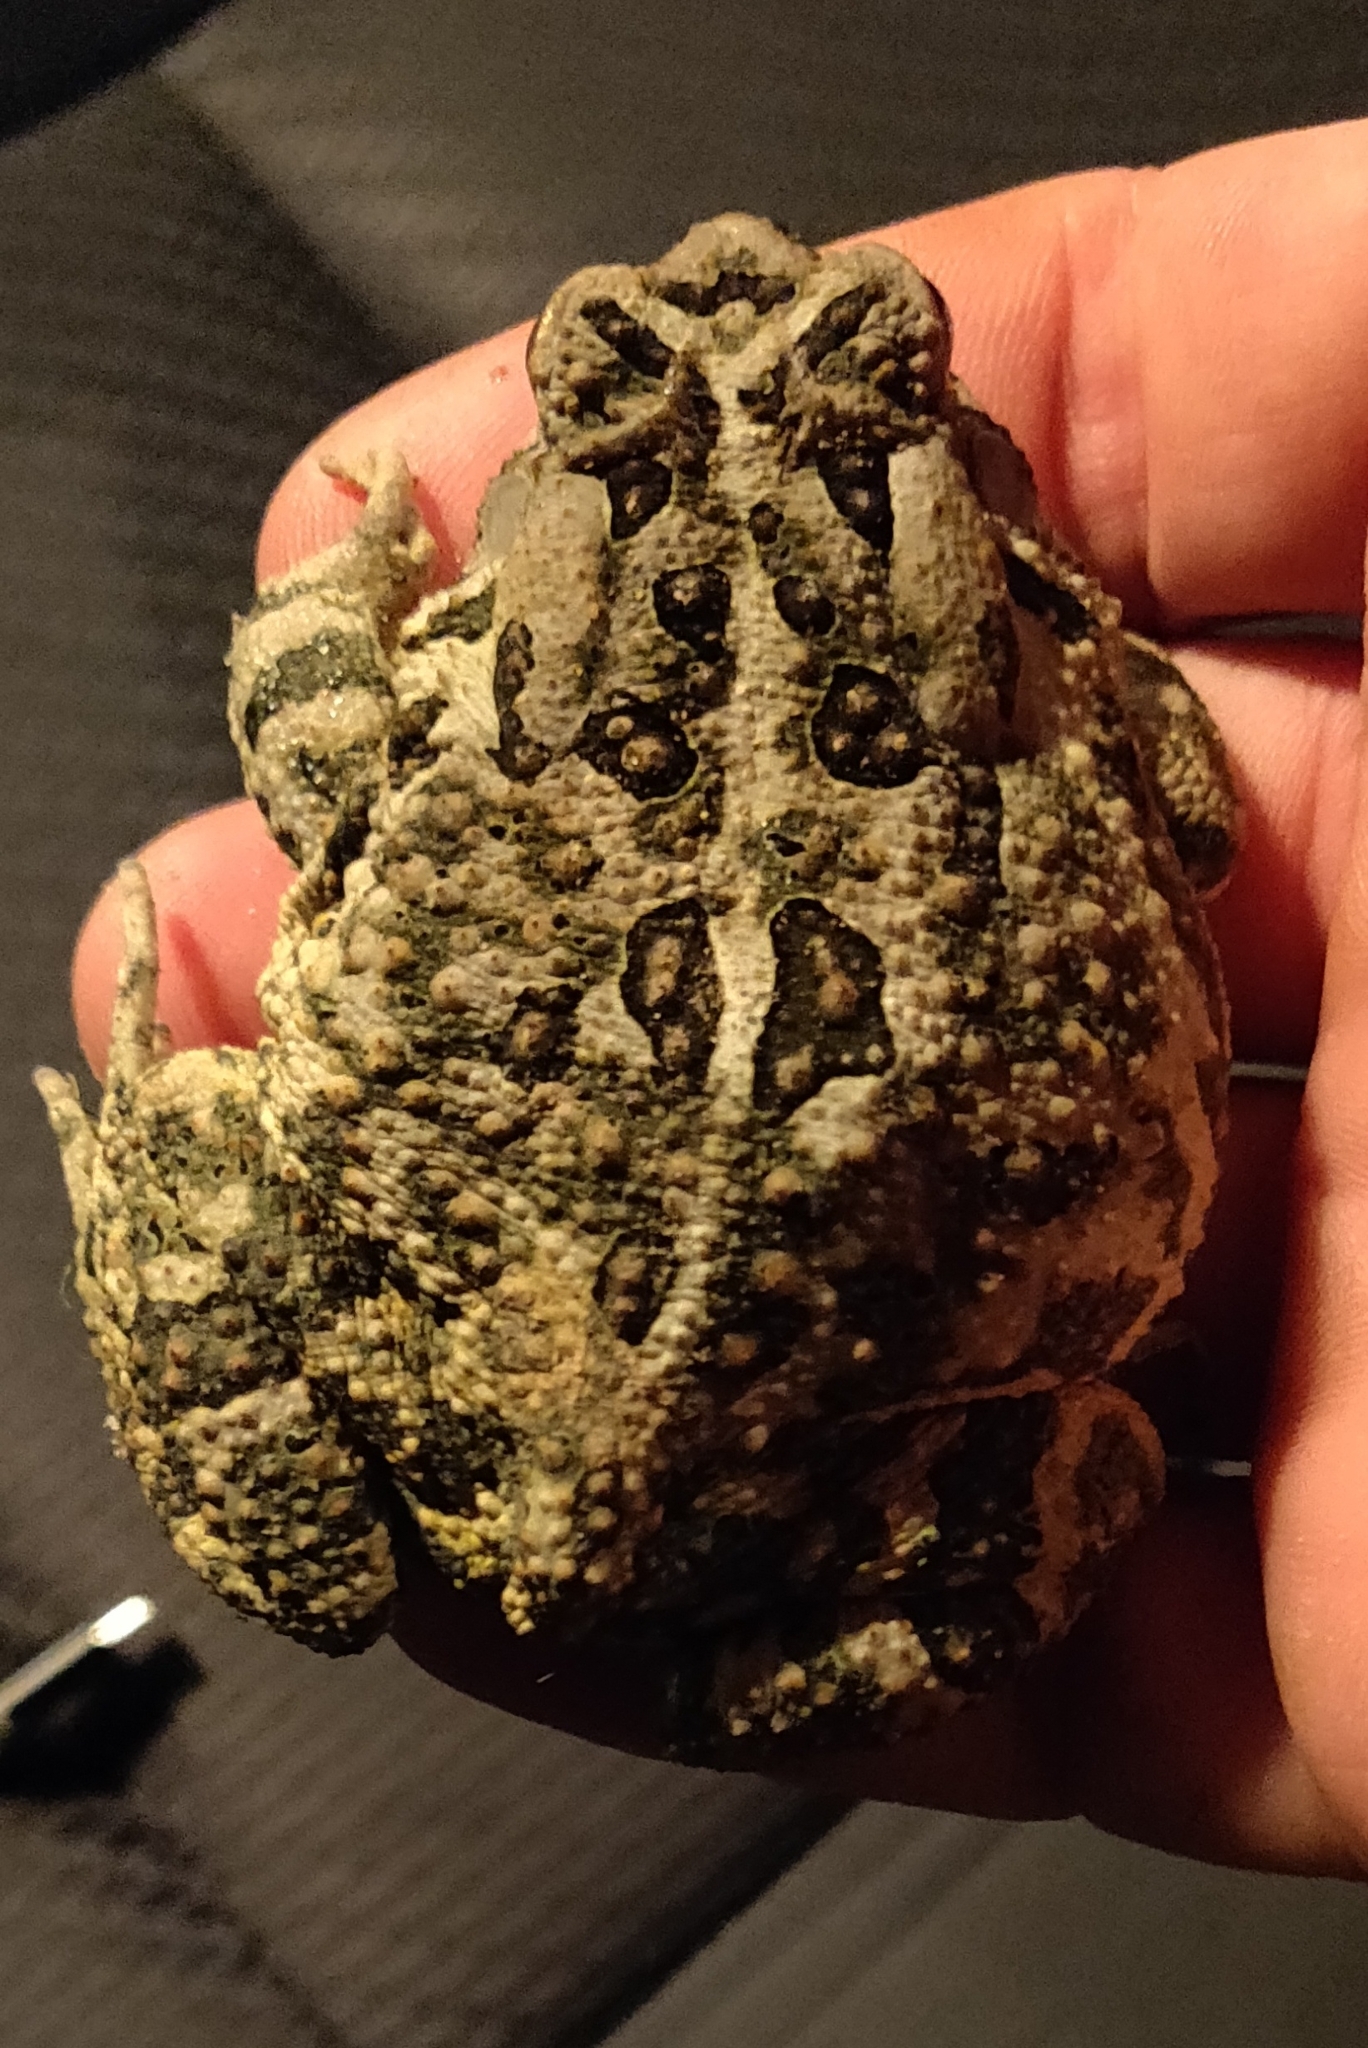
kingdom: Animalia
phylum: Chordata
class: Amphibia
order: Anura
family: Bufonidae
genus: Anaxyrus
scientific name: Anaxyrus fowleri
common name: Fowler's toad
